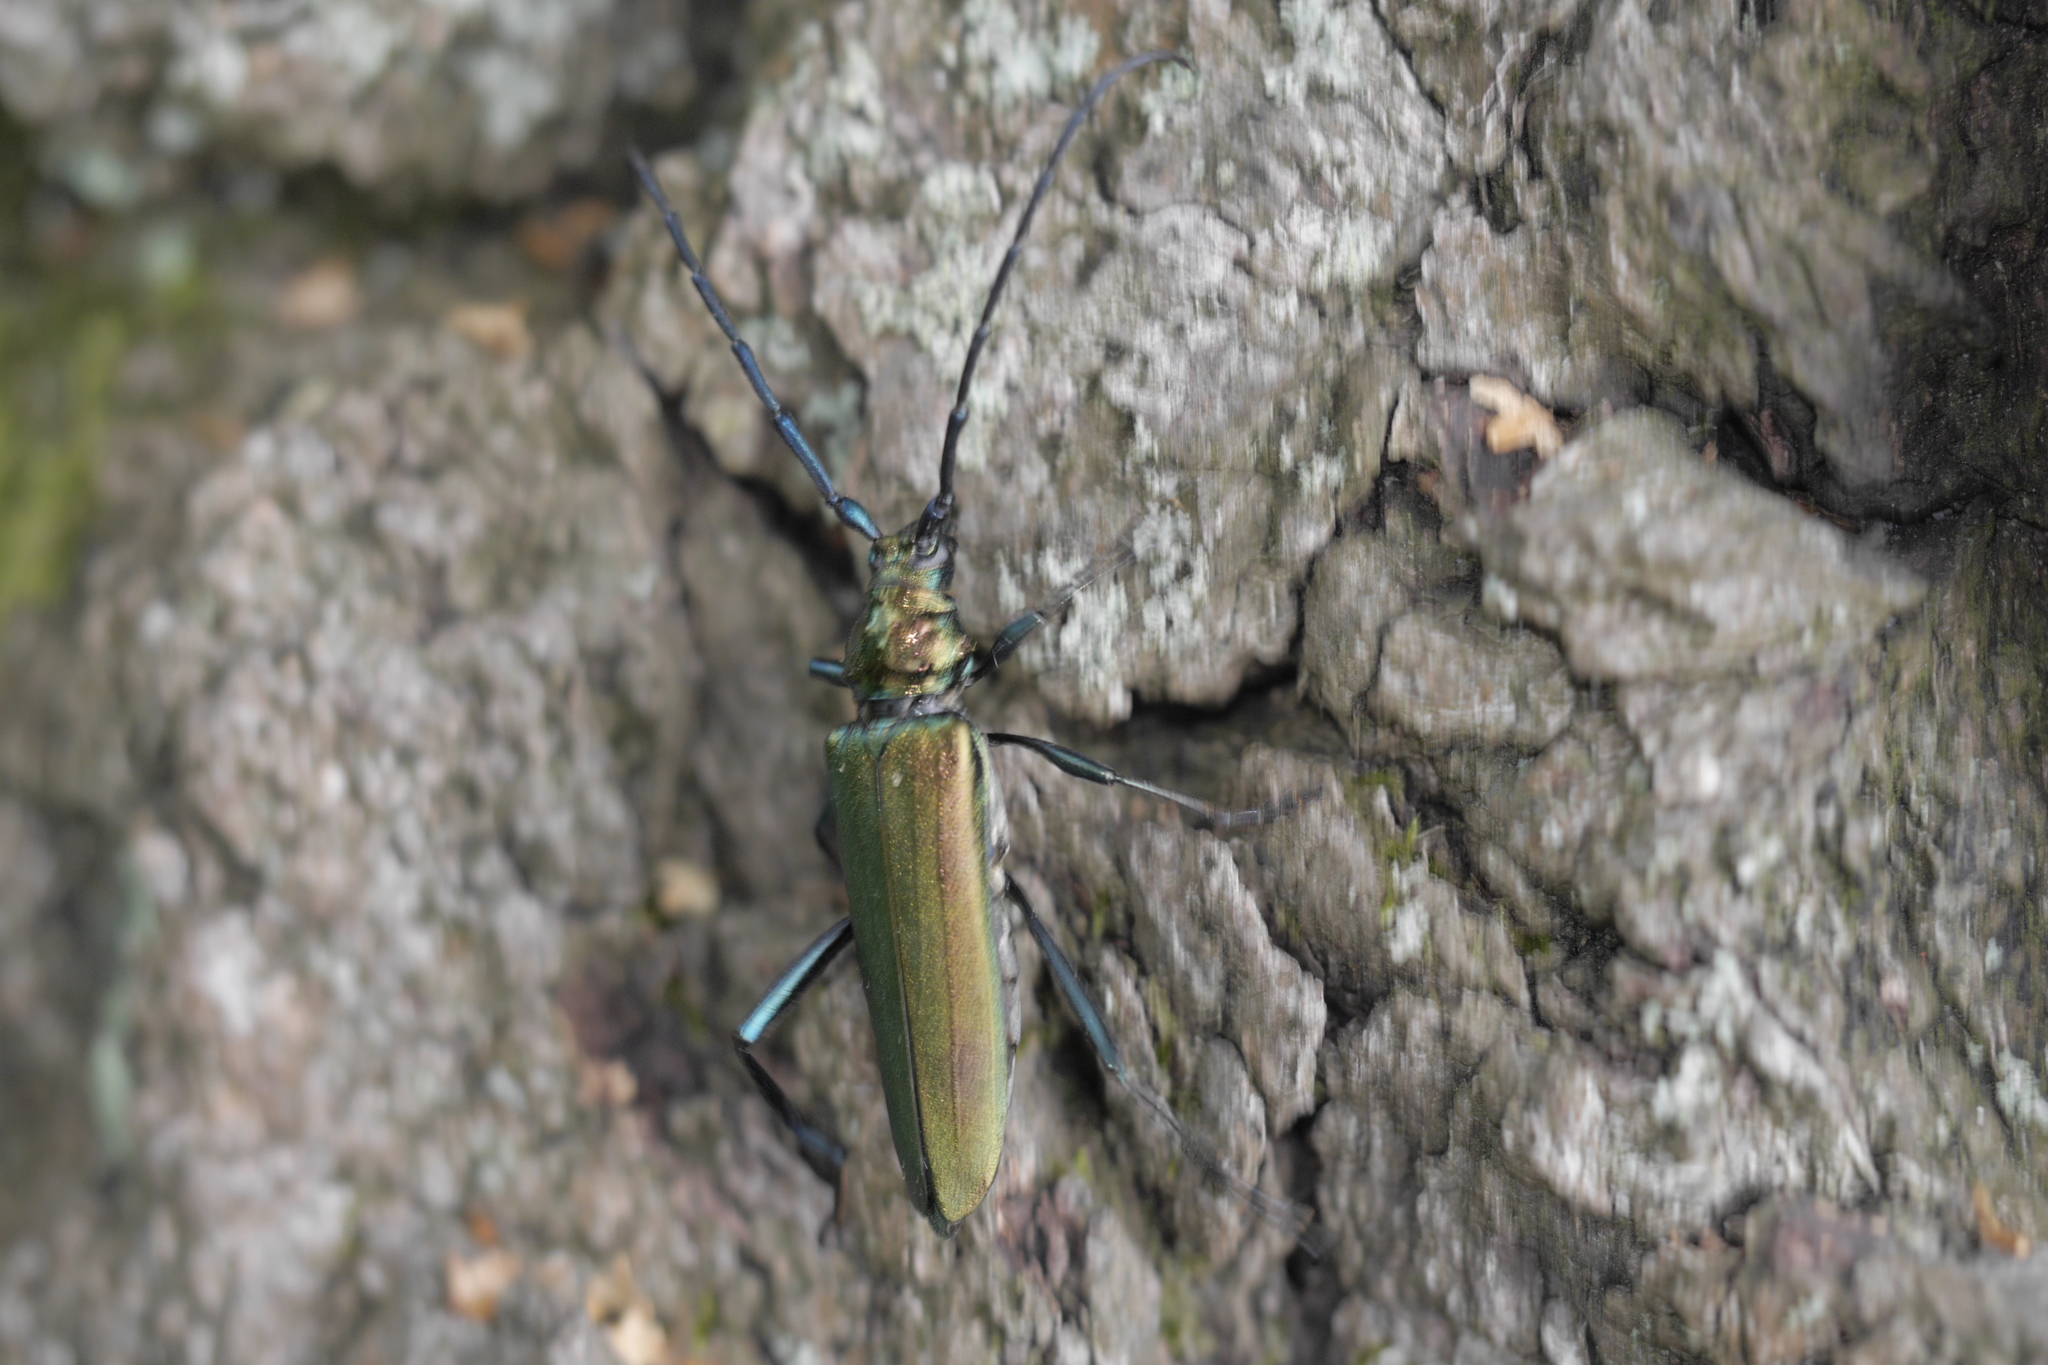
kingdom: Animalia
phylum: Arthropoda
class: Insecta
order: Coleoptera
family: Cerambycidae
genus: Aromia
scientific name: Aromia moschata
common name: Musk beetle
